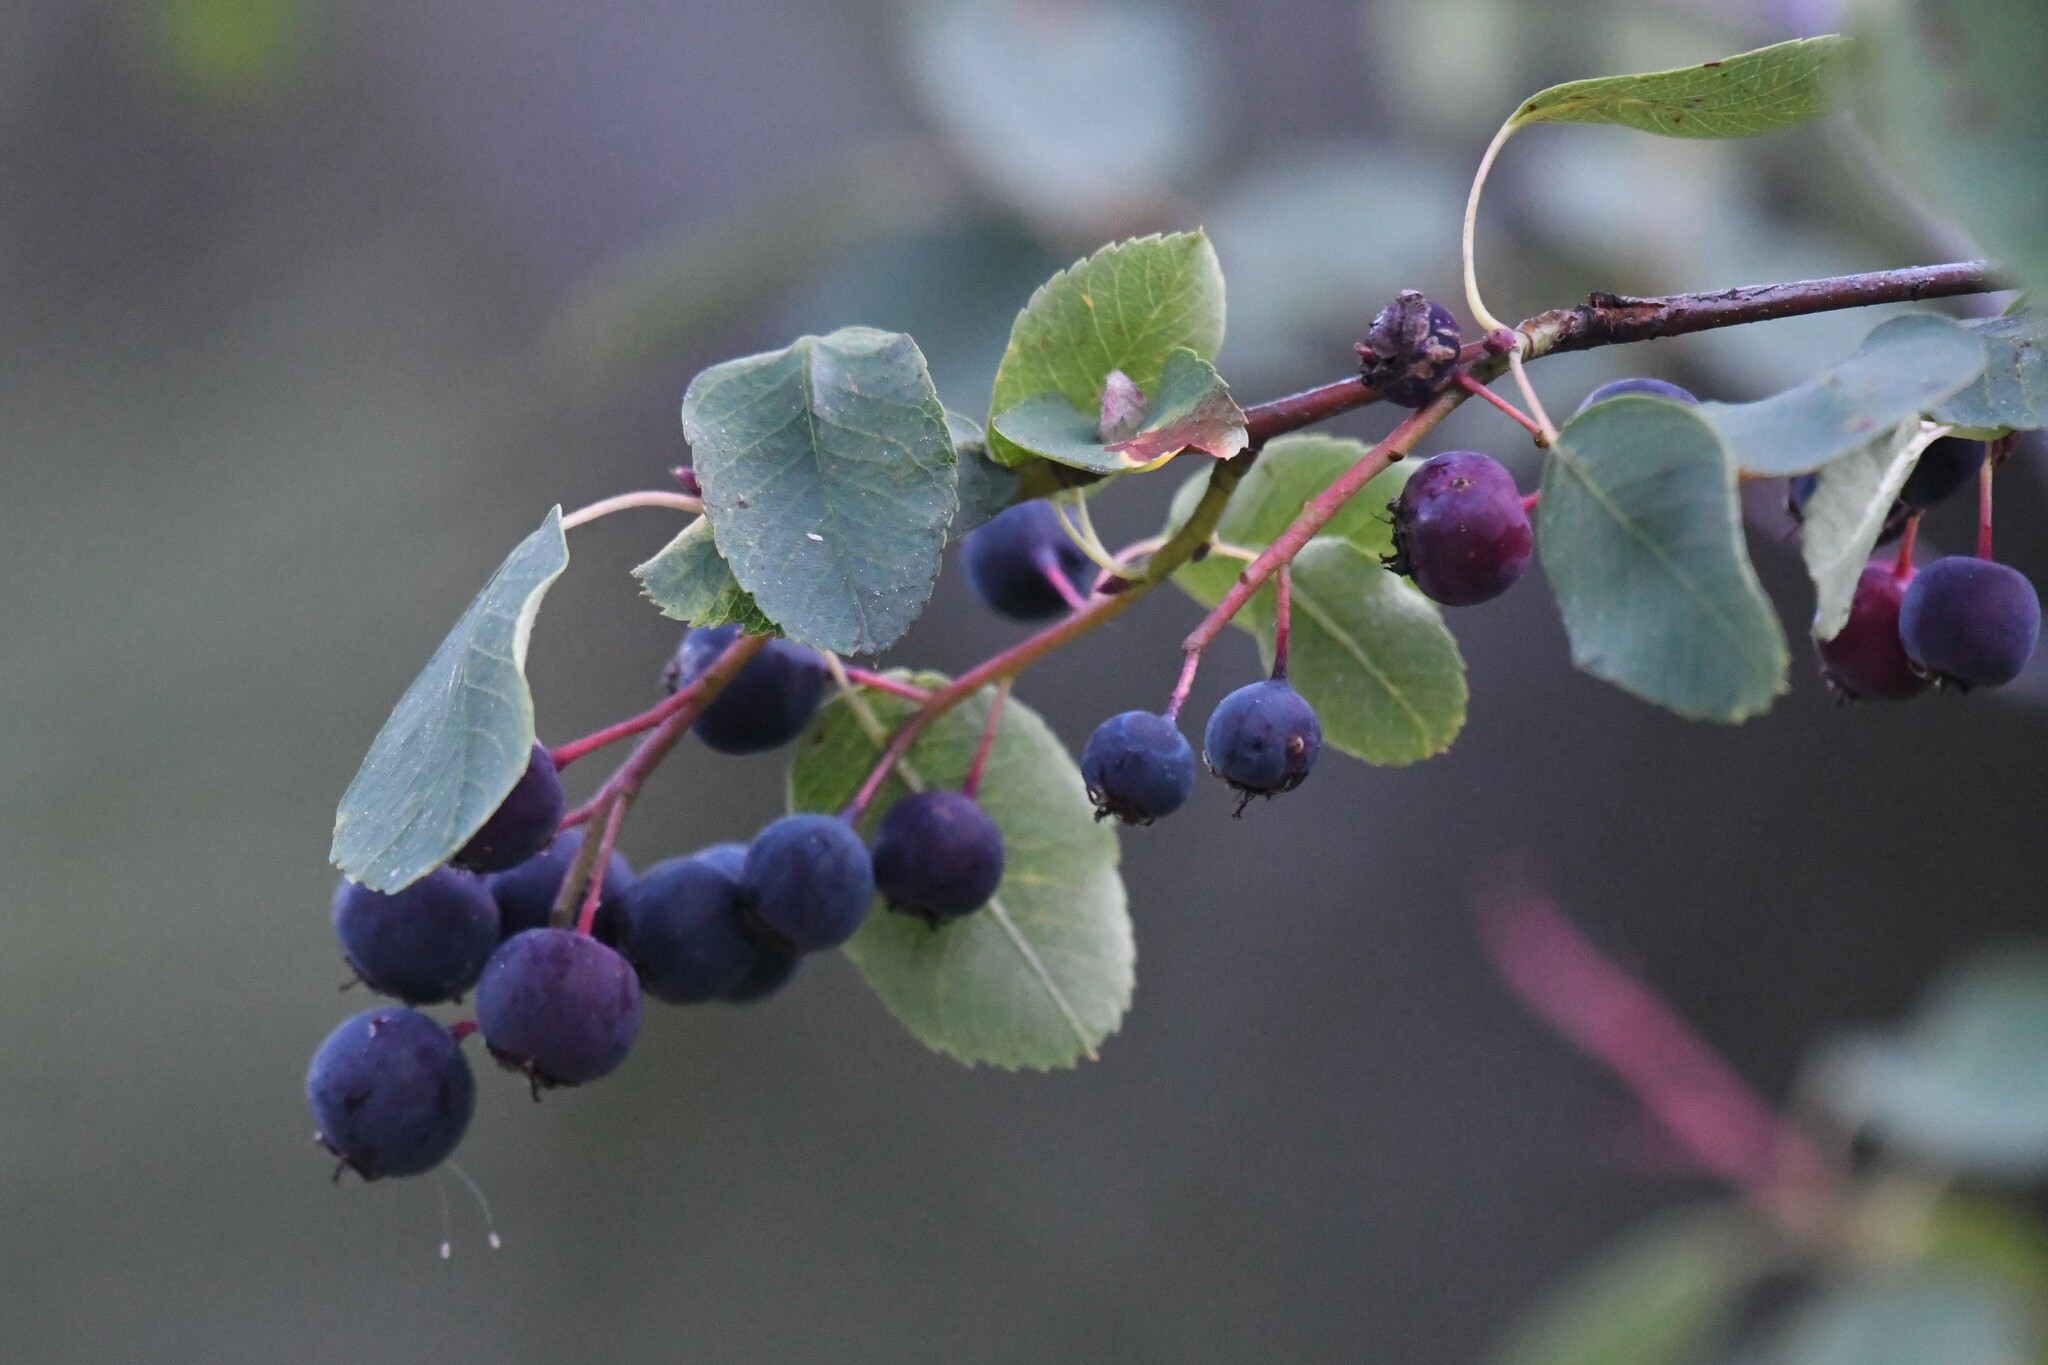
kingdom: Plantae
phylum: Tracheophyta
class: Magnoliopsida
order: Rosales
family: Rosaceae
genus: Amelanchier
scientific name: Amelanchier alnifolia
